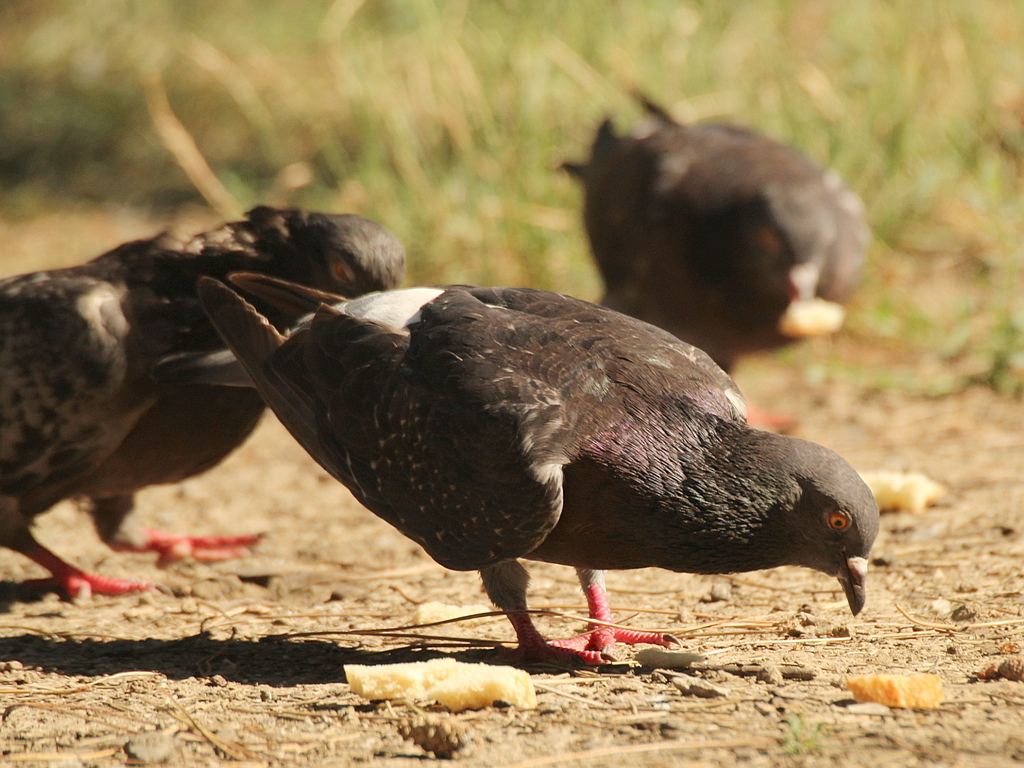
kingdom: Animalia
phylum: Chordata
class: Aves
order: Columbiformes
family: Columbidae
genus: Columba
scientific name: Columba livia
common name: Rock pigeon
